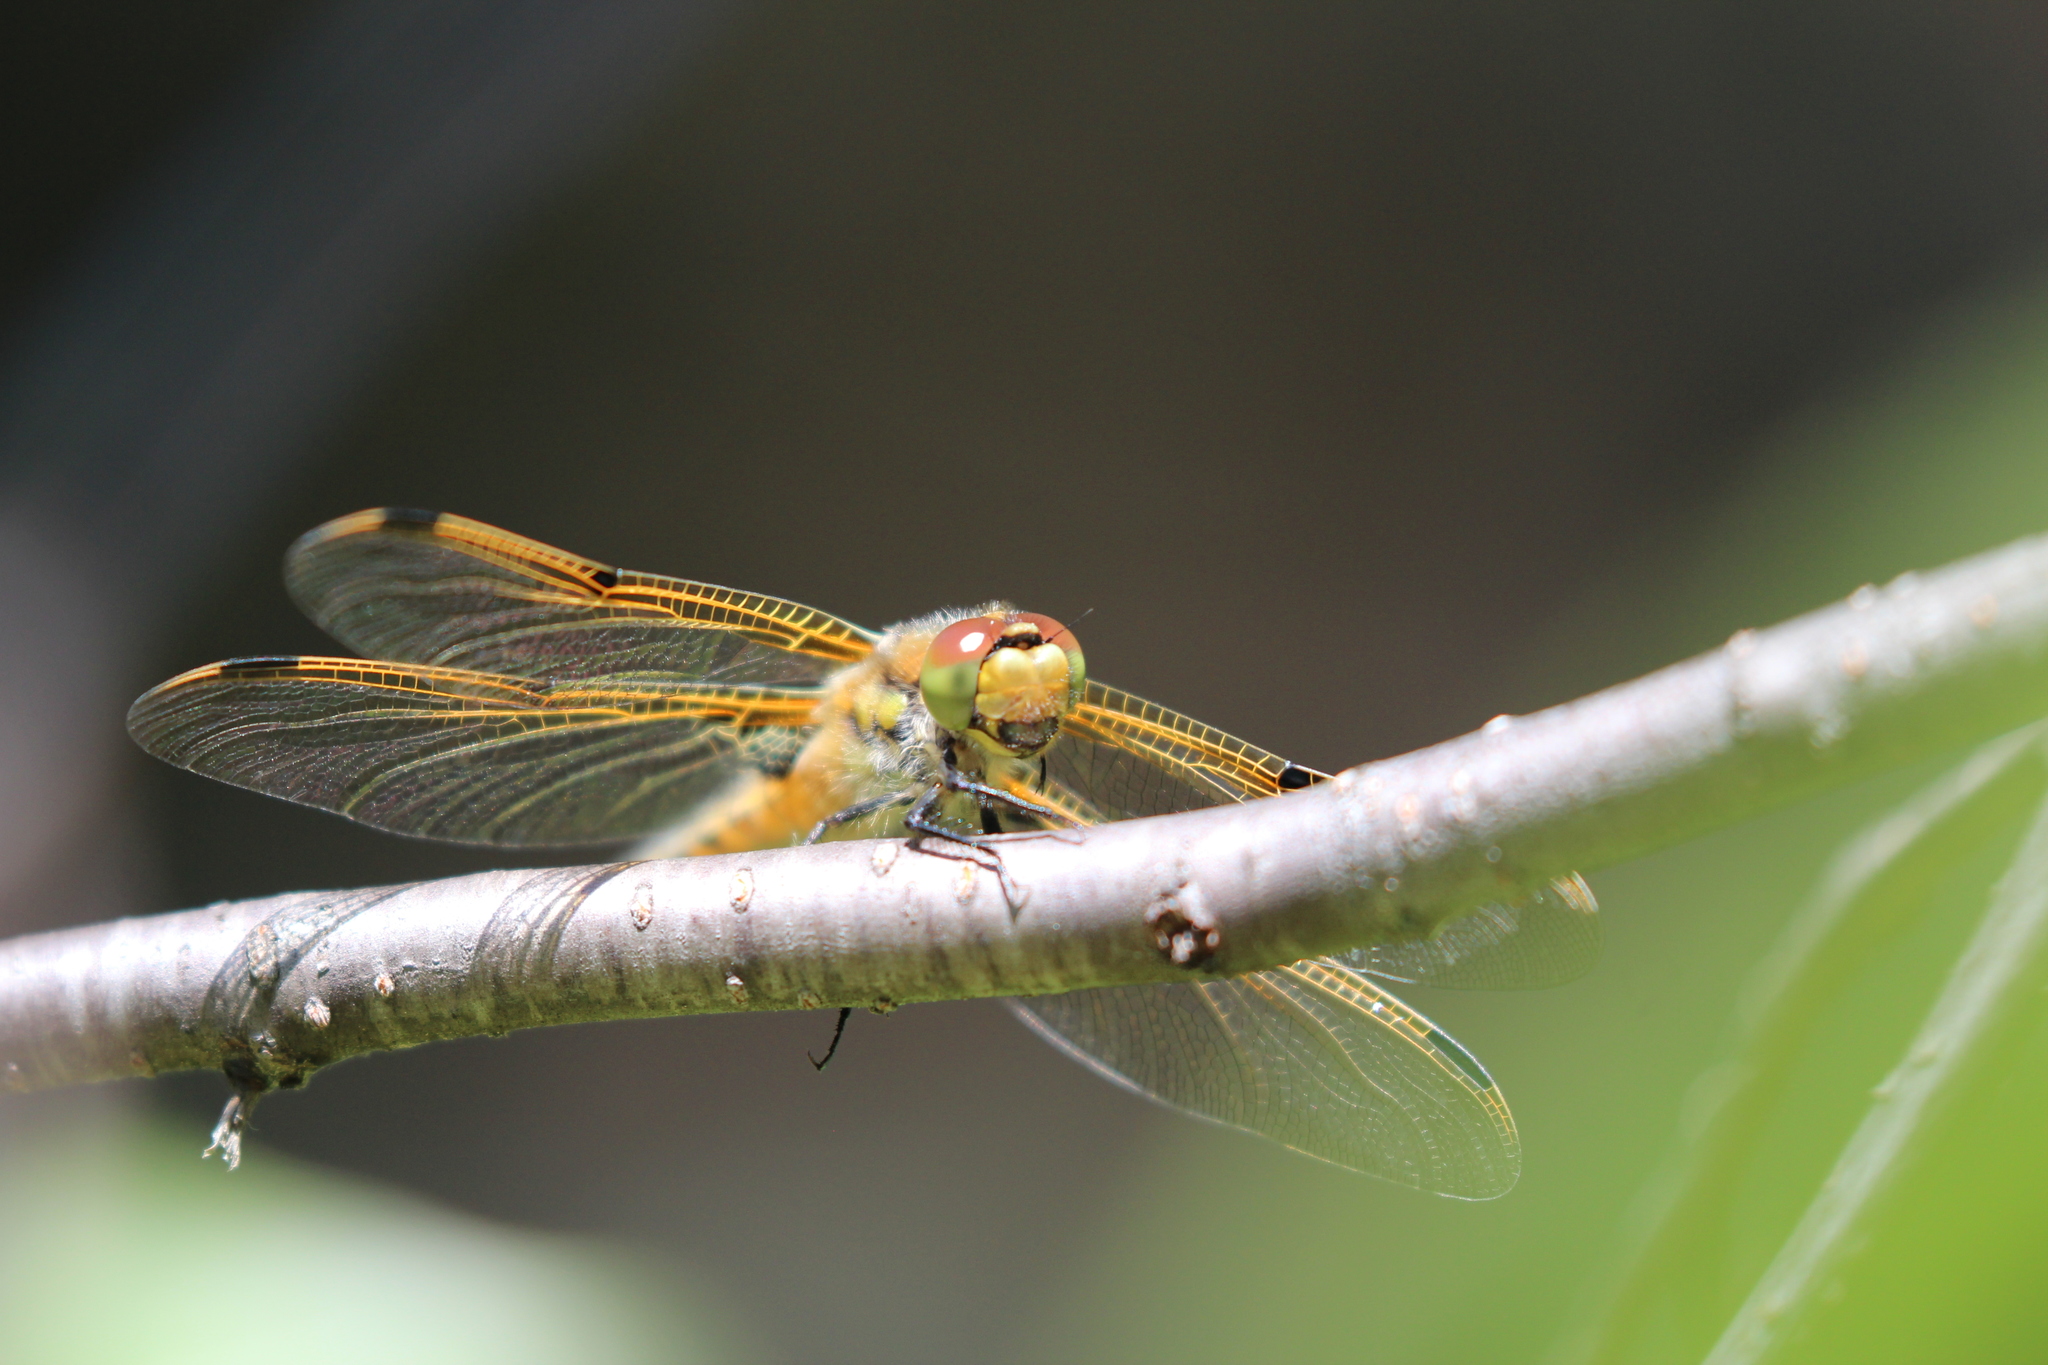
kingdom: Animalia
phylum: Arthropoda
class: Insecta
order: Odonata
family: Libellulidae
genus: Libellula
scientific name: Libellula quadrimaculata
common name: Four-spotted chaser
